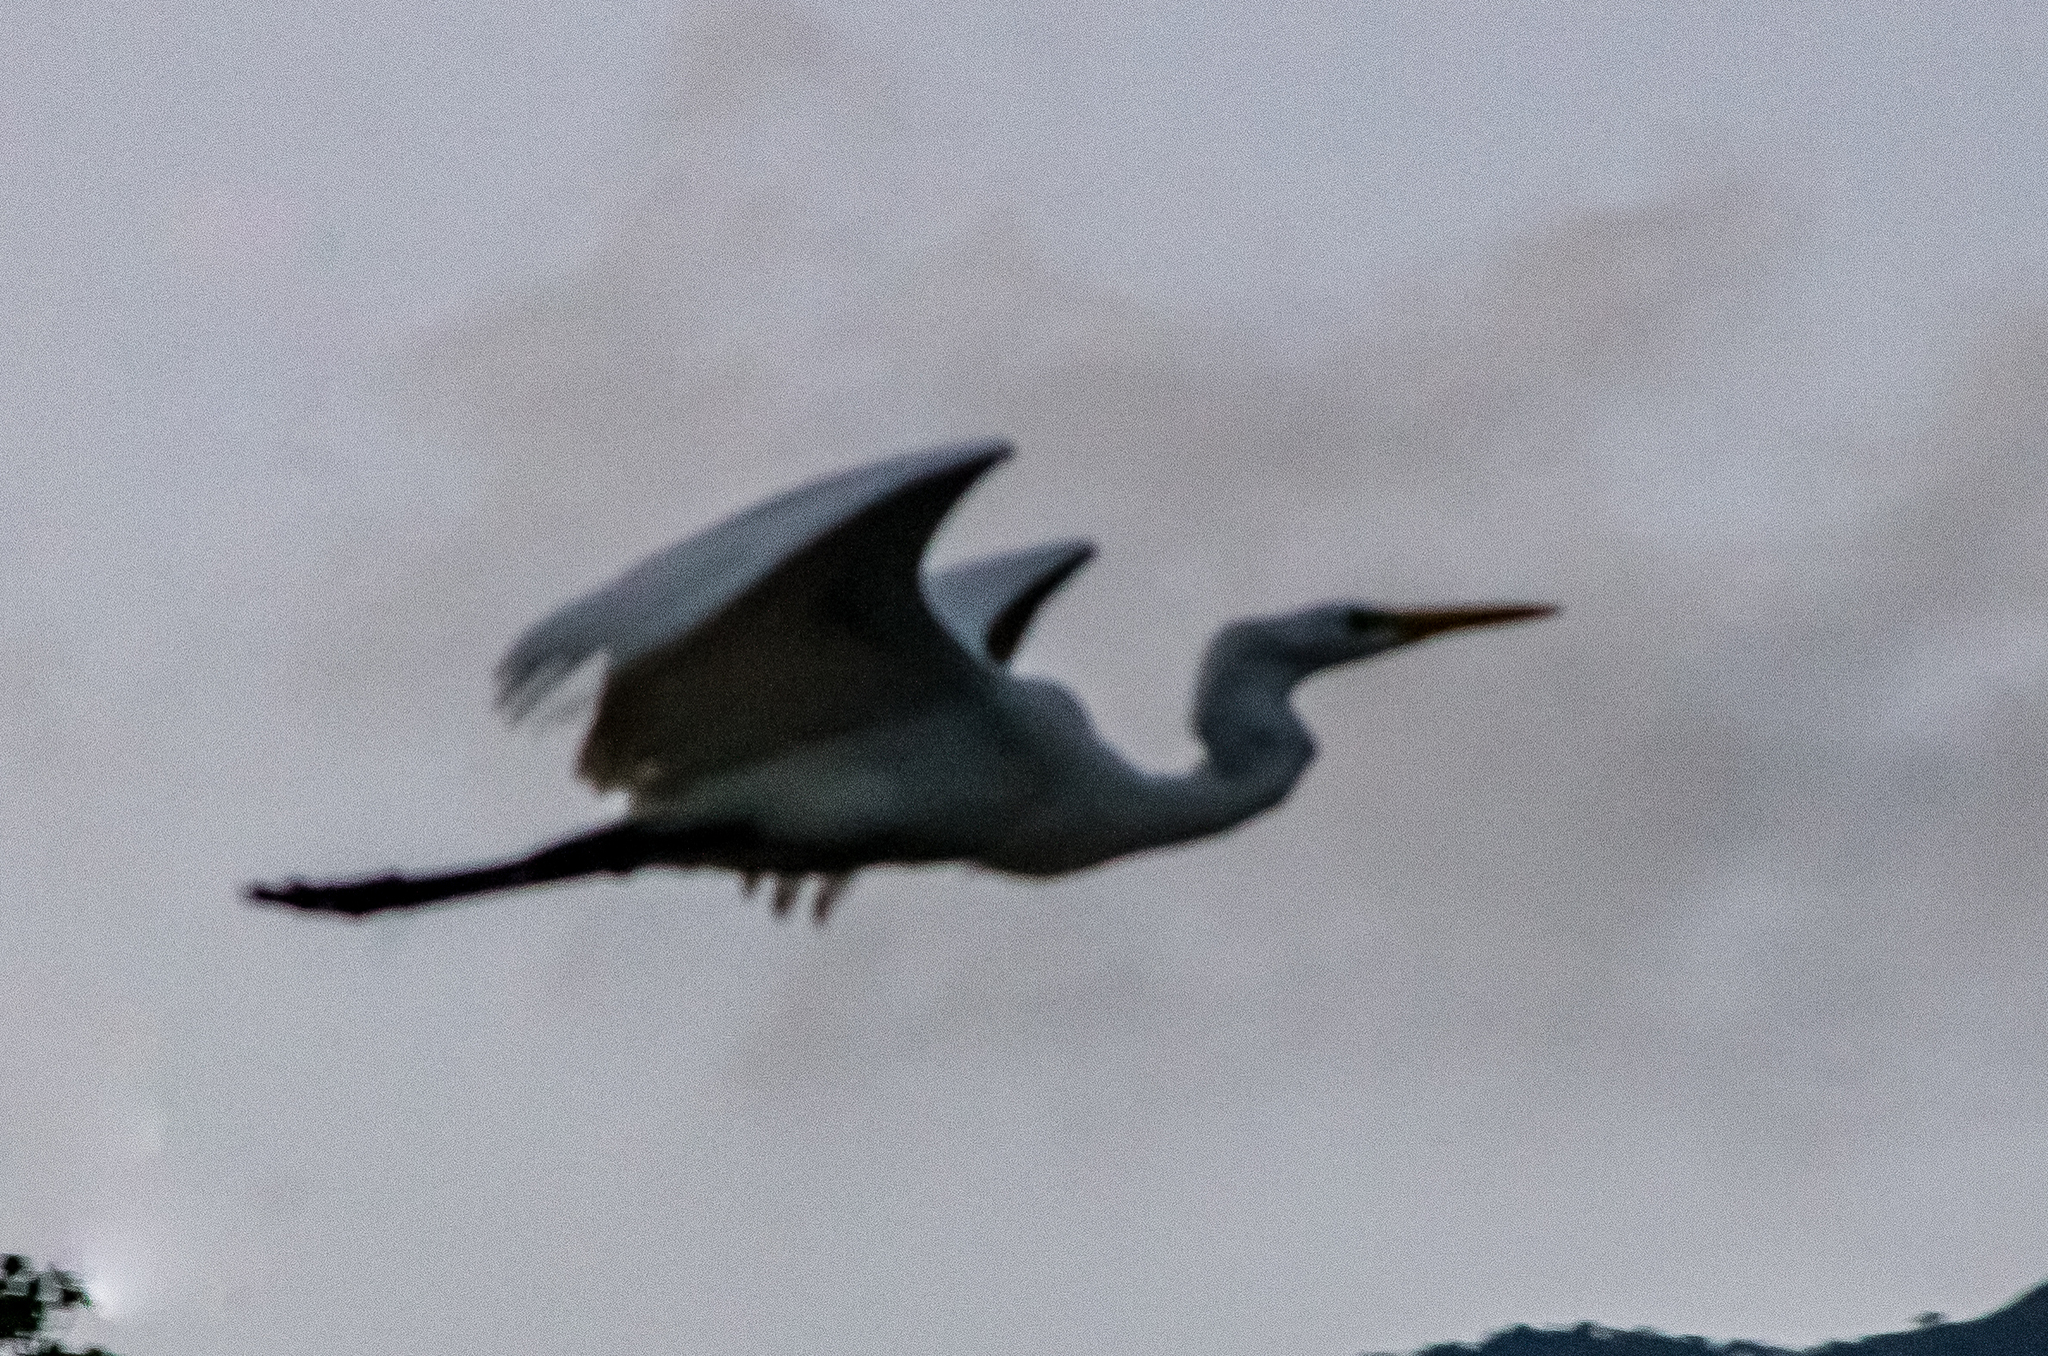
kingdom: Animalia
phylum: Chordata
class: Aves
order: Pelecaniformes
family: Ardeidae
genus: Ardea
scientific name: Ardea alba
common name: Great egret
